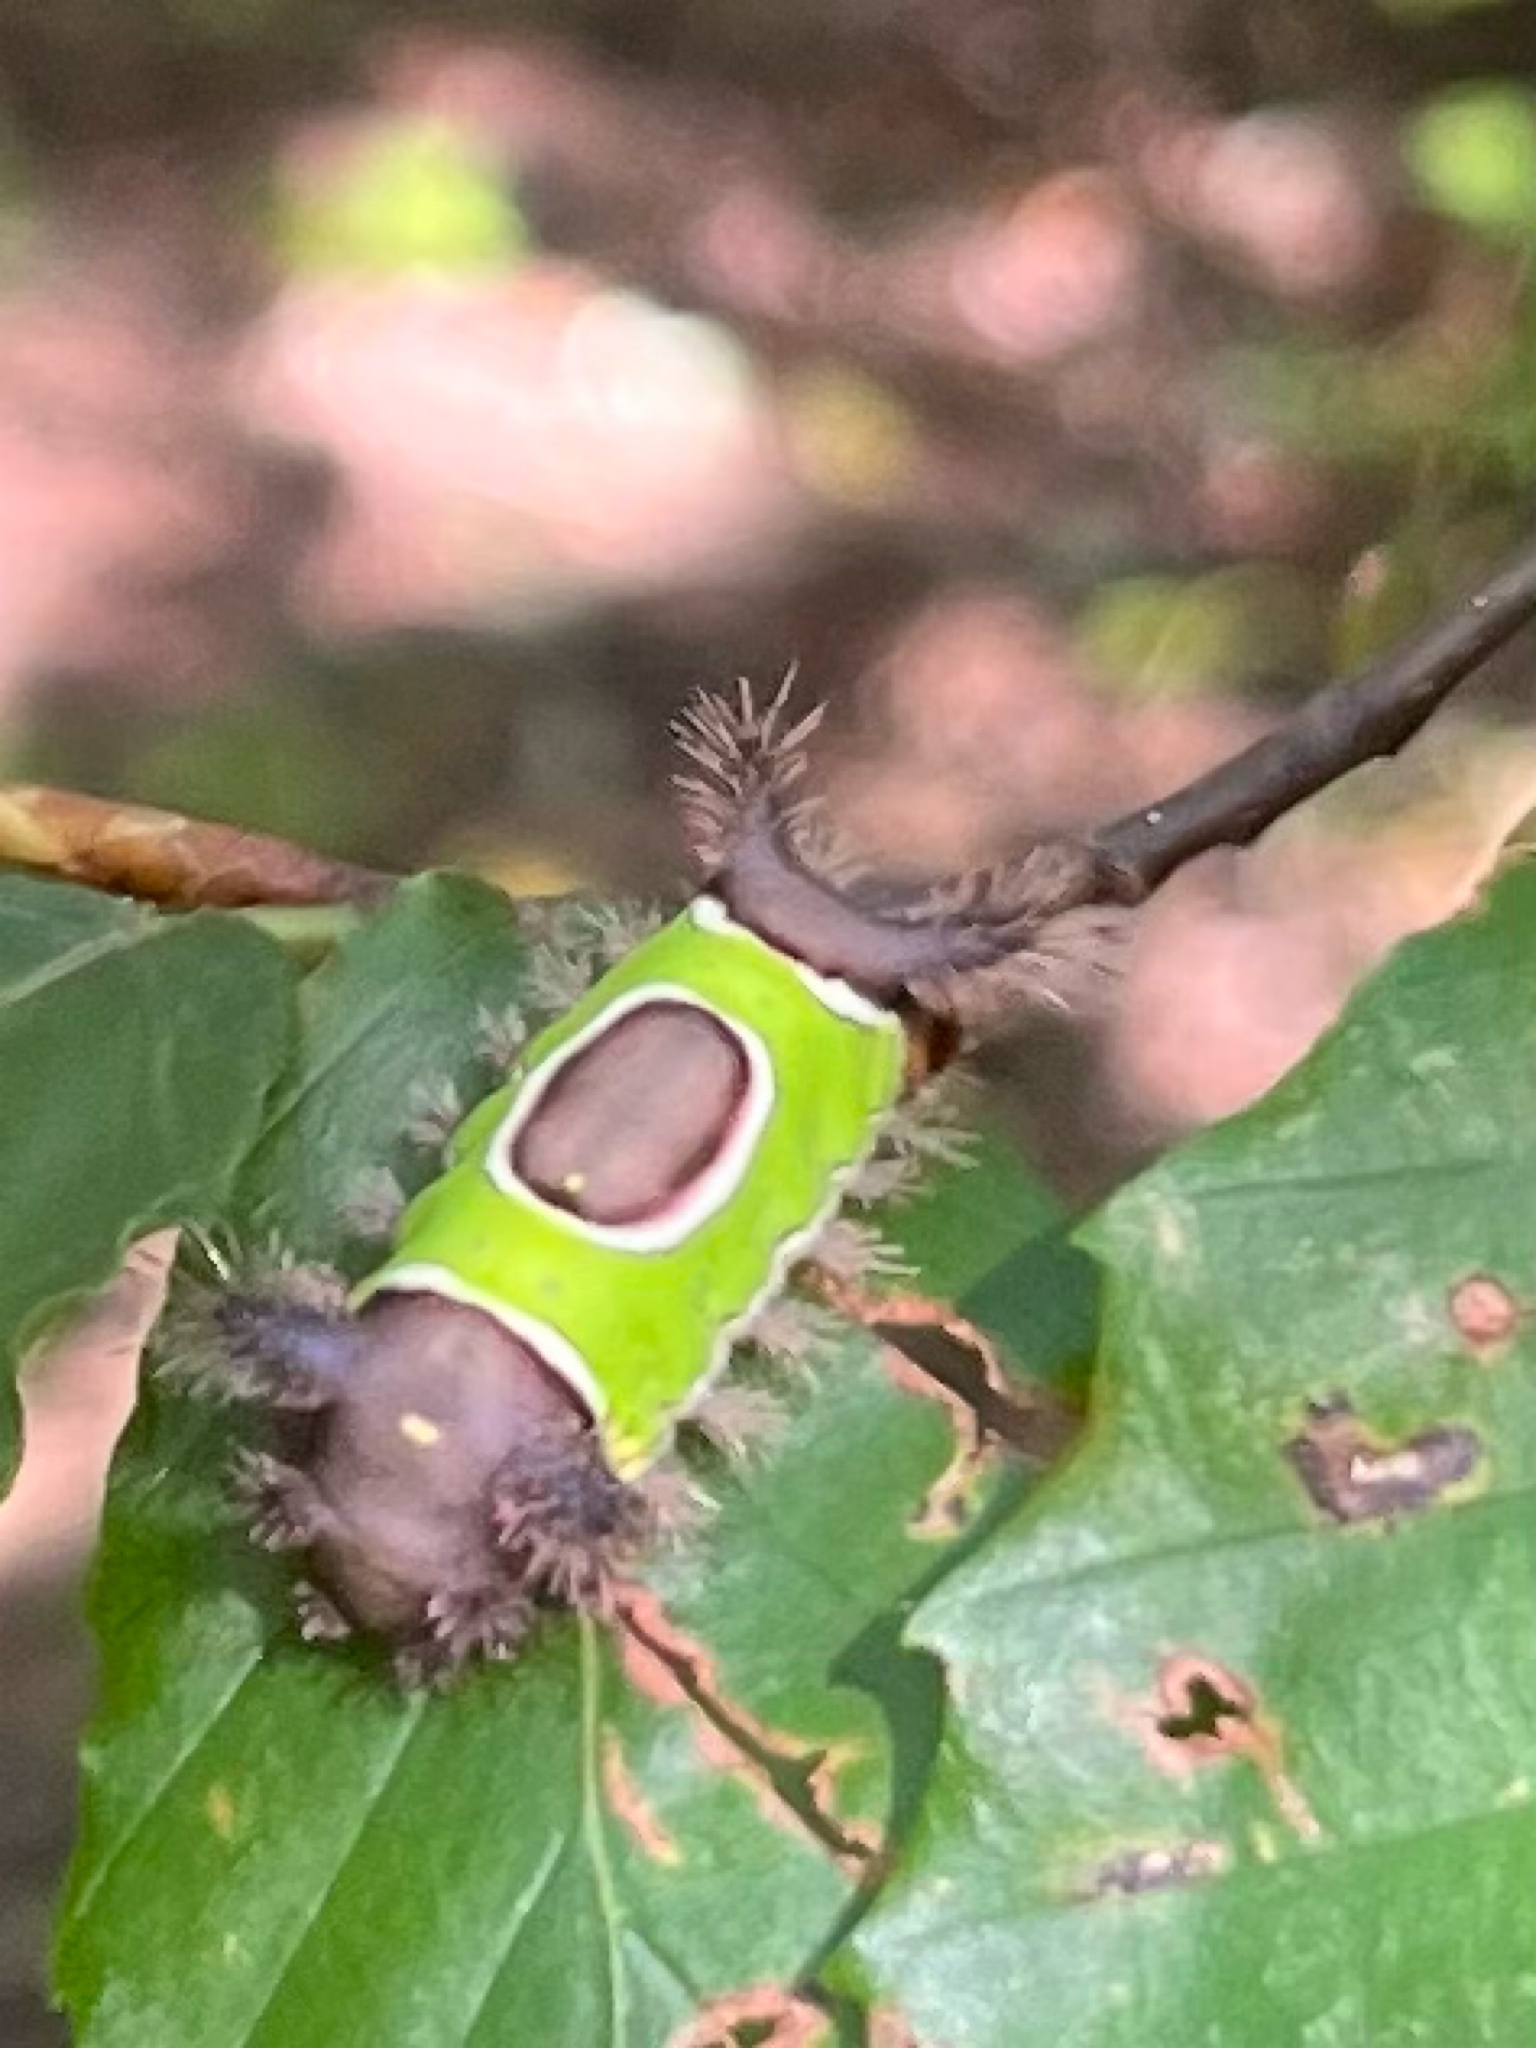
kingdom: Animalia
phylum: Arthropoda
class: Insecta
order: Lepidoptera
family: Limacodidae
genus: Acharia
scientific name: Acharia stimulea
